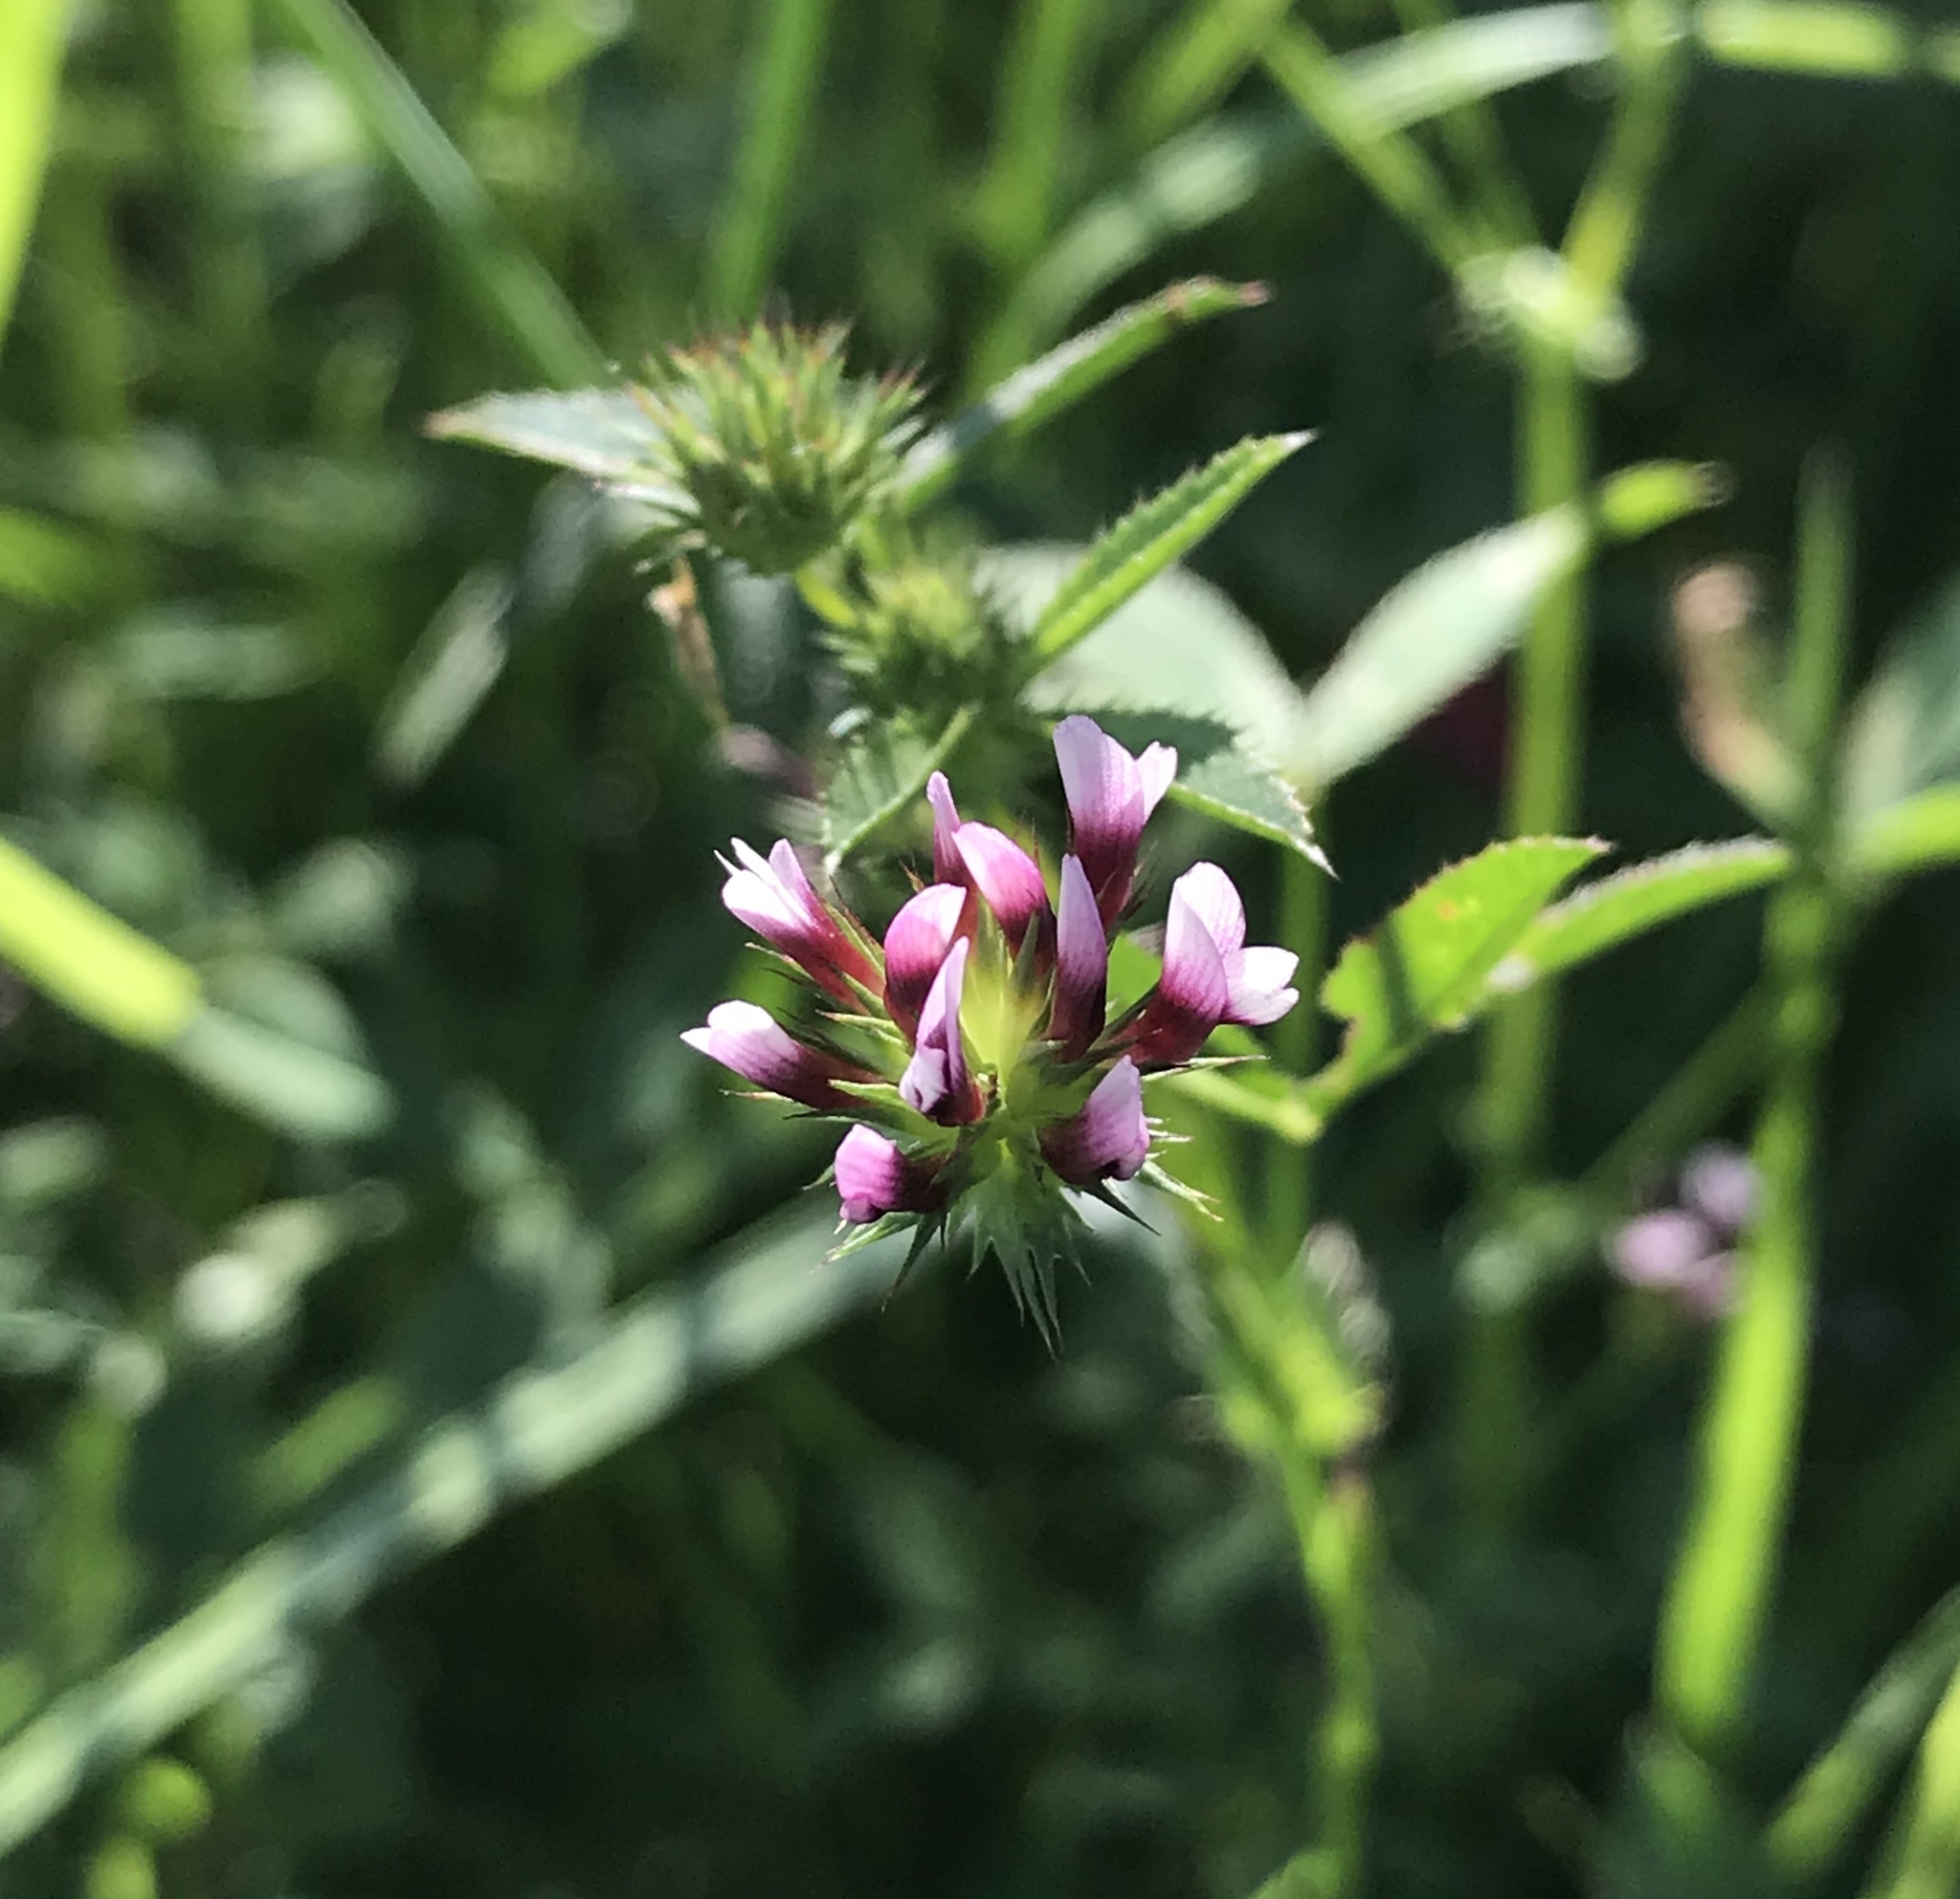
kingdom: Plantae
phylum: Tracheophyta
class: Magnoliopsida
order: Fabales
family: Fabaceae
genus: Trifolium
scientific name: Trifolium willdenovii
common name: Tomcat clover
